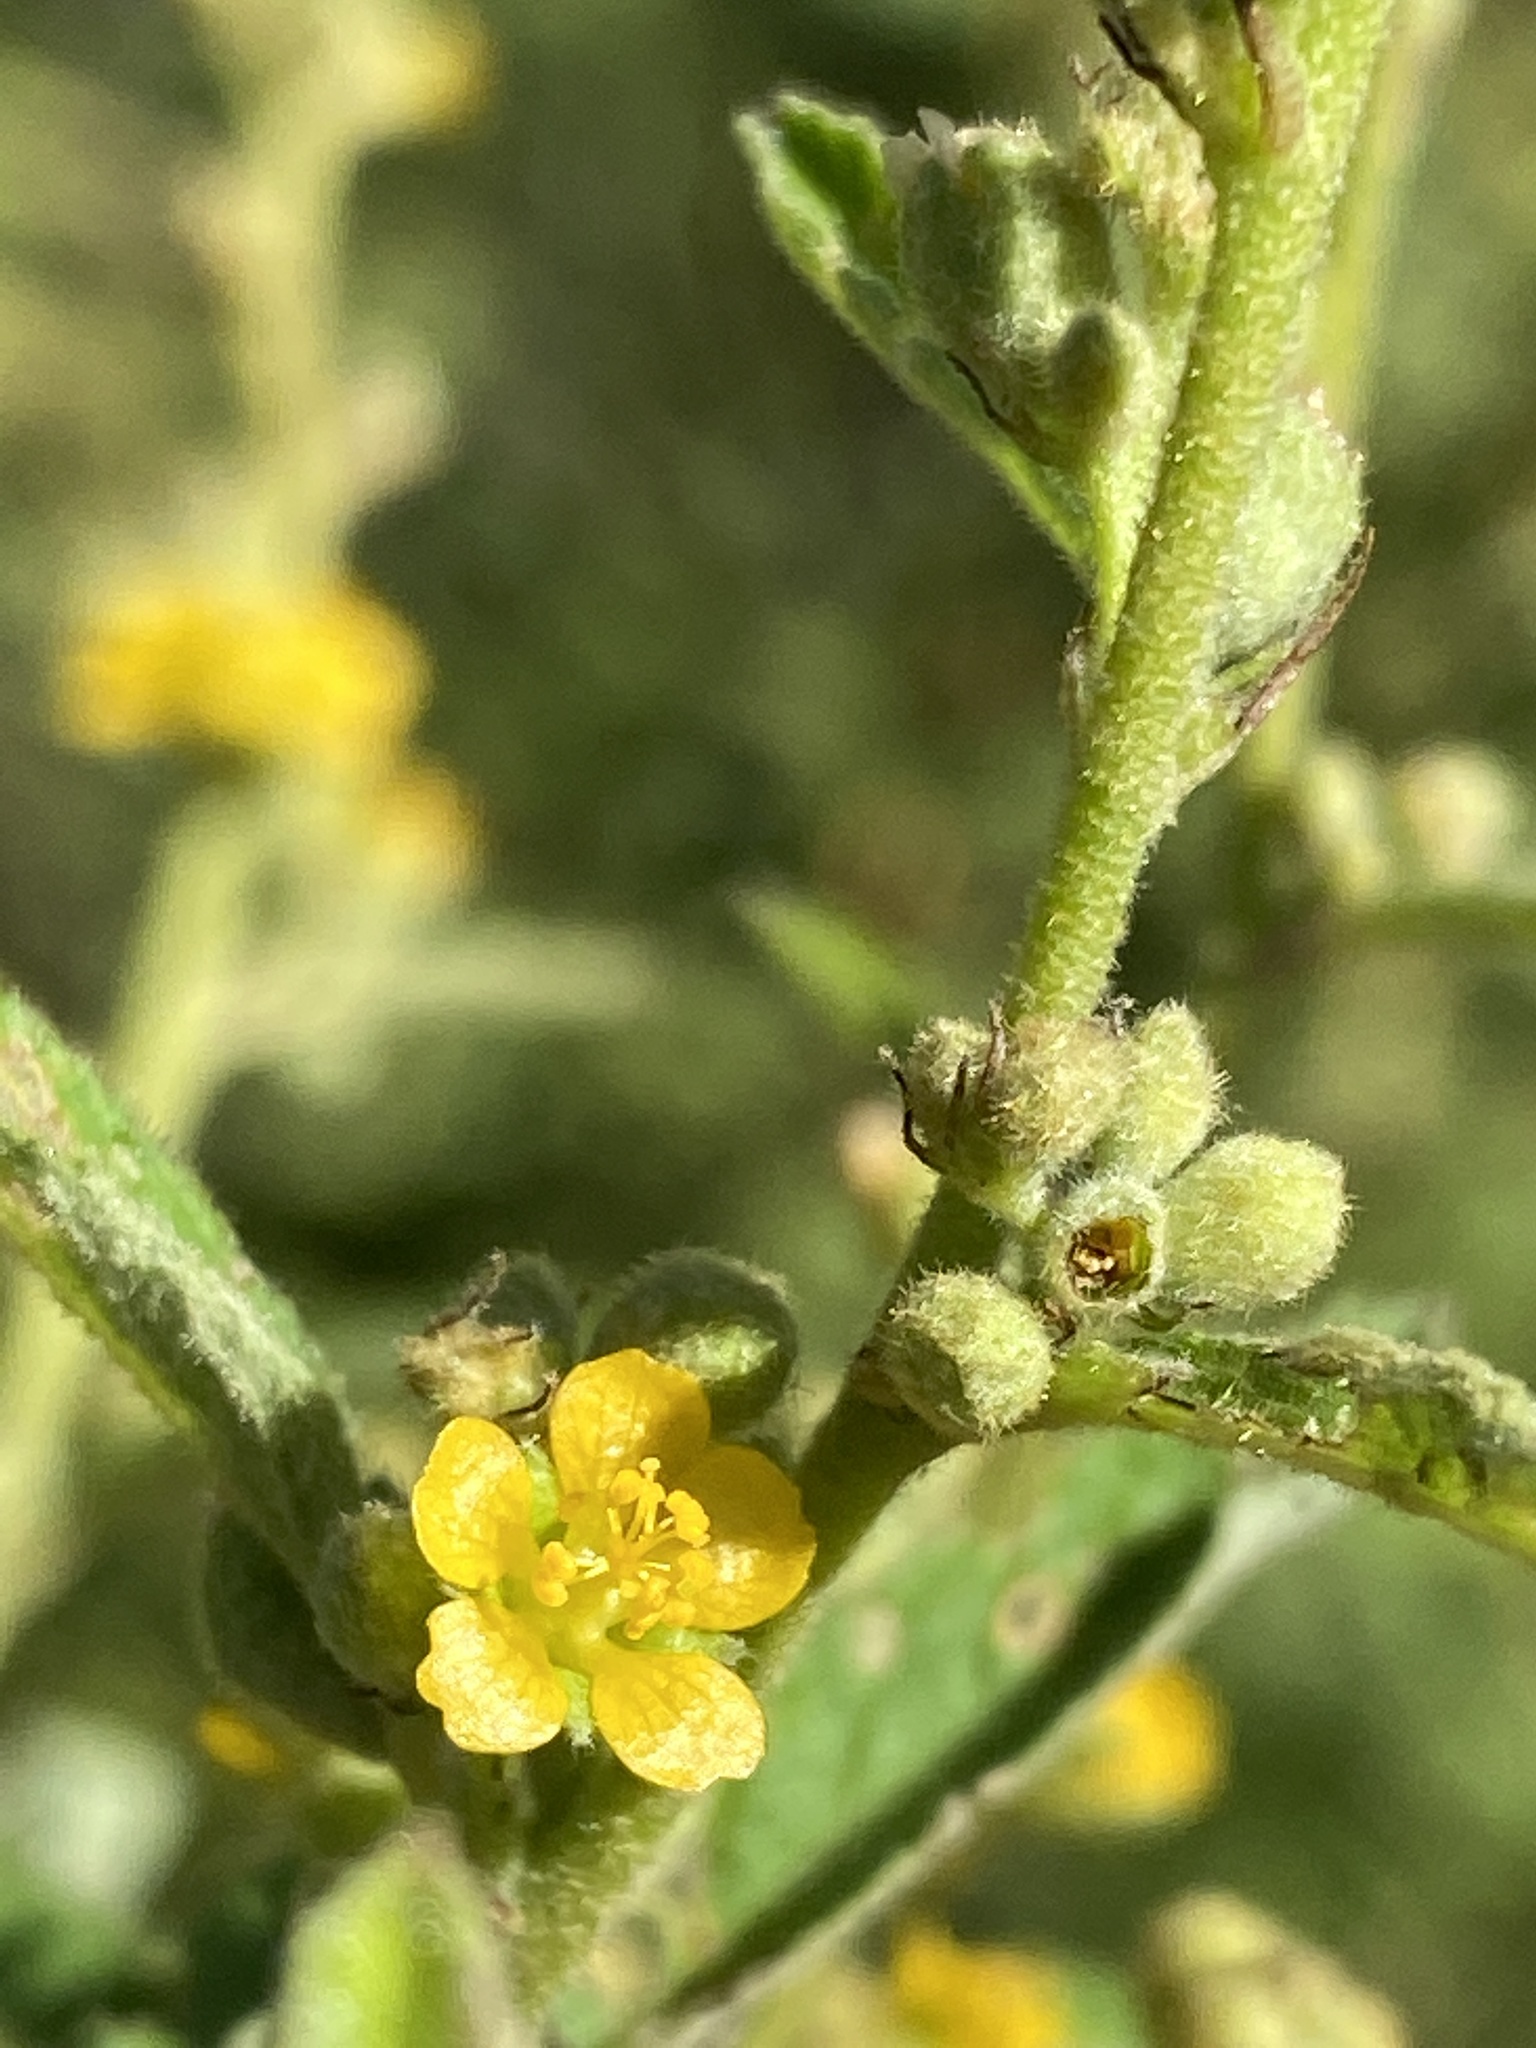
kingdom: Plantae
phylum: Tracheophyta
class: Magnoliopsida
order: Malvales
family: Malvaceae
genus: Sida
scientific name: Sida hackettiana
